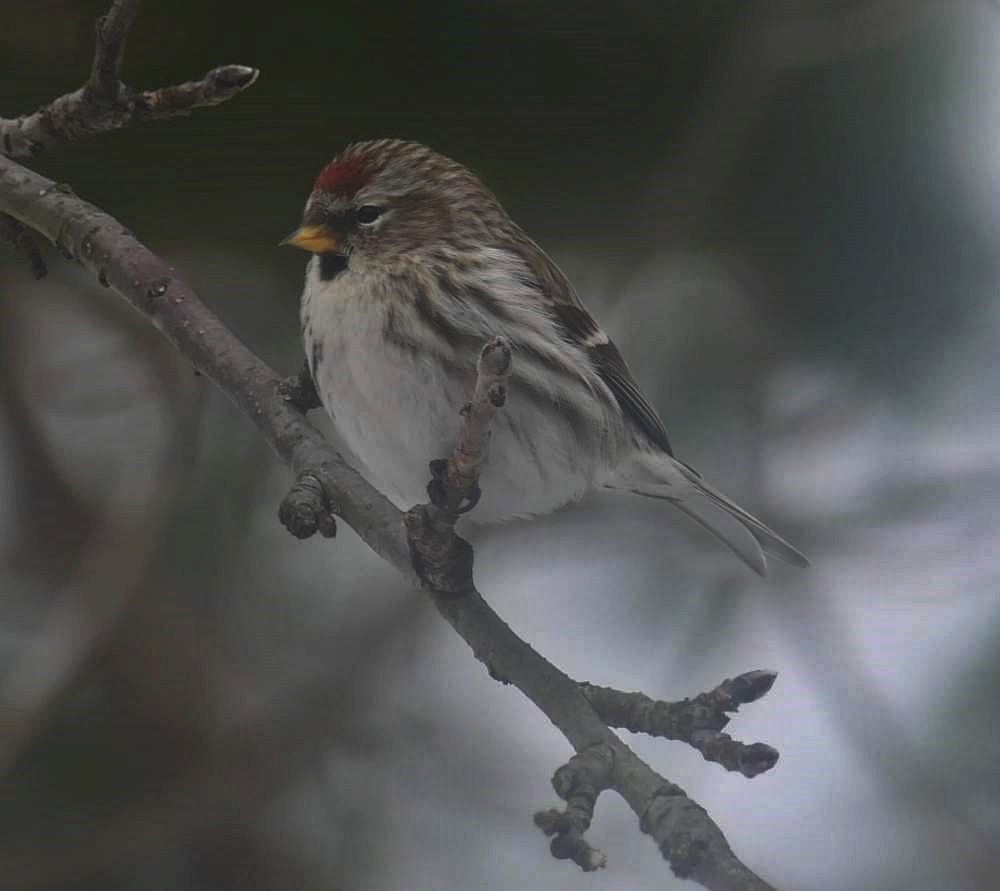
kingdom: Animalia
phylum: Chordata
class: Aves
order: Passeriformes
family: Fringillidae
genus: Acanthis
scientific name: Acanthis flammea
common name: Common redpoll
